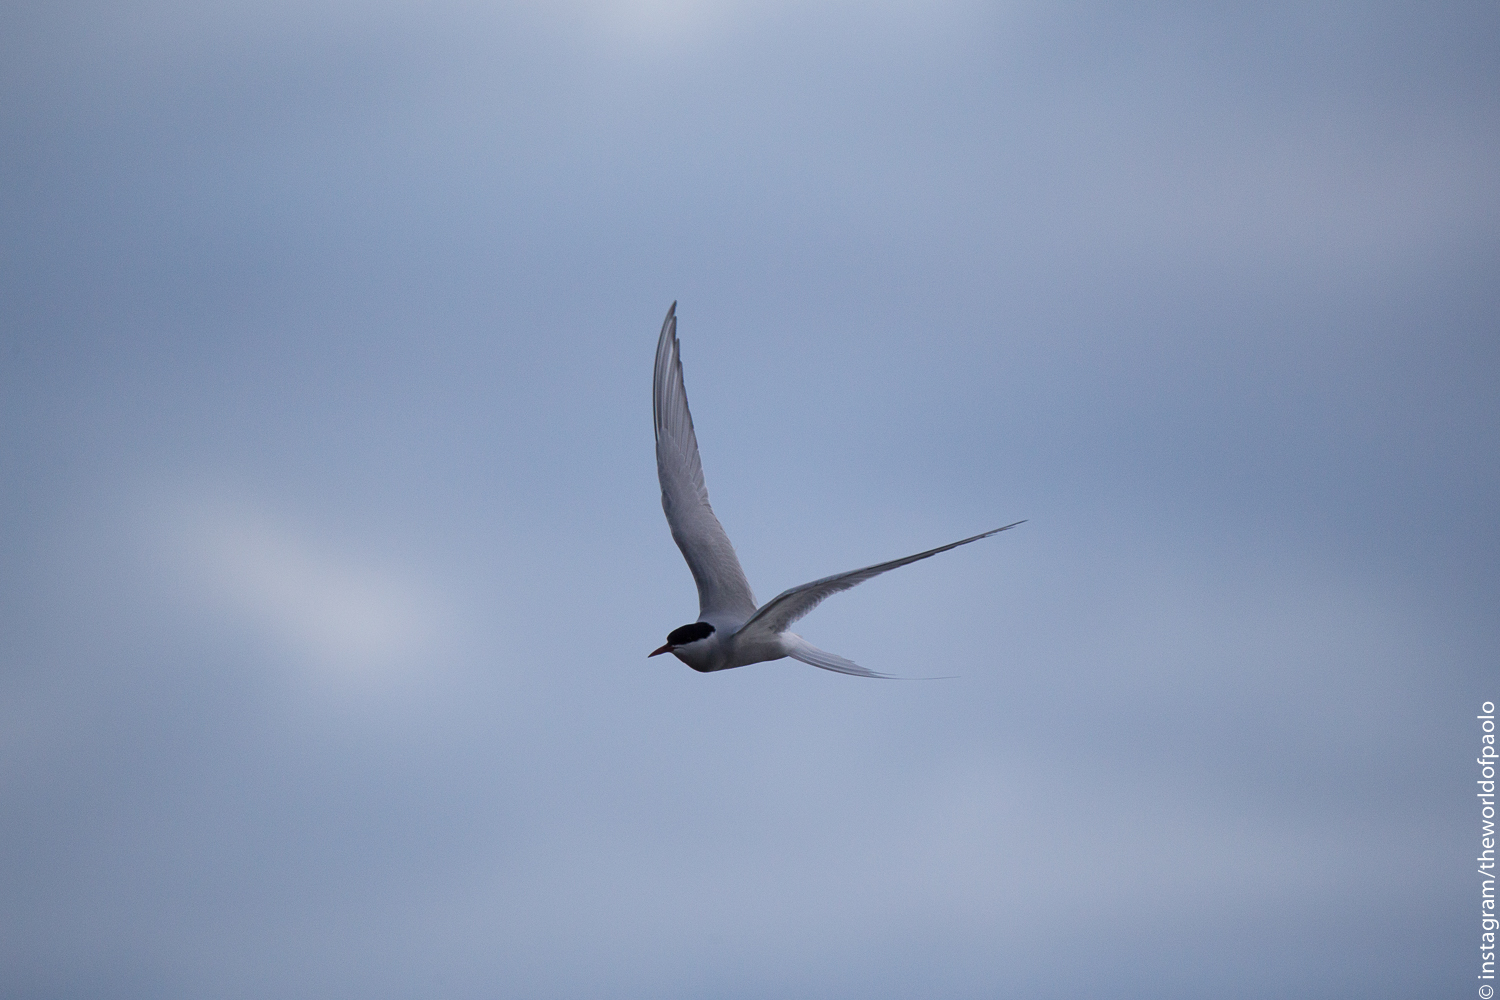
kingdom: Animalia
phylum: Chordata
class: Aves
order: Charadriiformes
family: Laridae
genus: Sterna
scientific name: Sterna paradisaea
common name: Arctic tern
